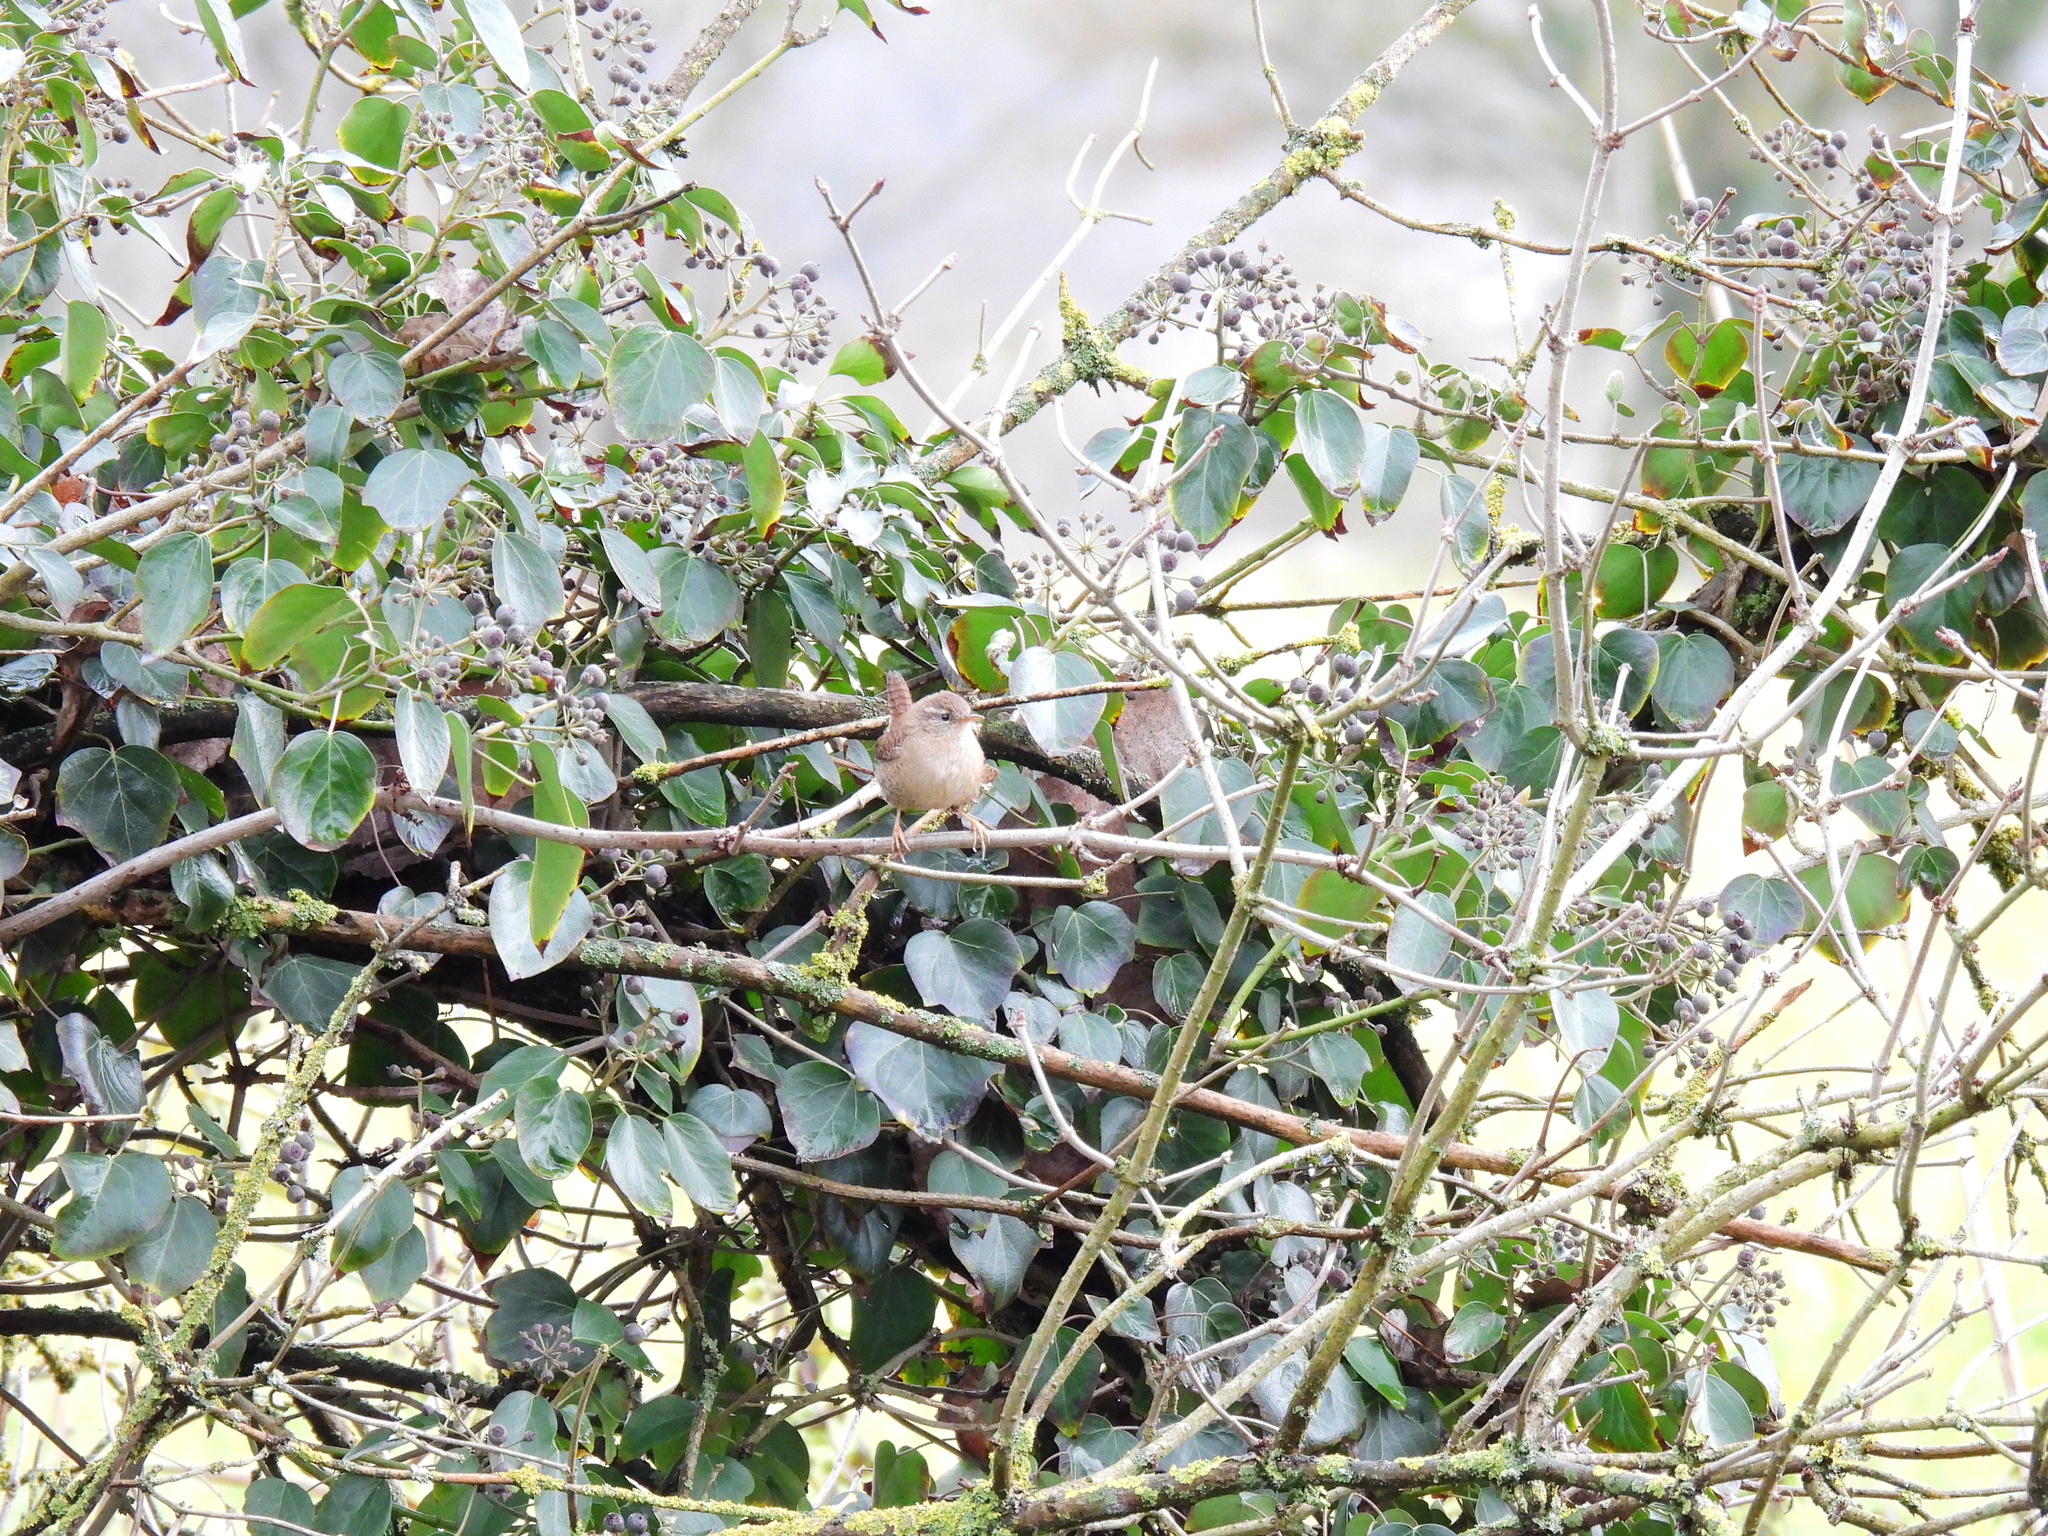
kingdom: Animalia
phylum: Chordata
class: Aves
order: Passeriformes
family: Troglodytidae
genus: Troglodytes
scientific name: Troglodytes troglodytes
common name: Eurasian wren
